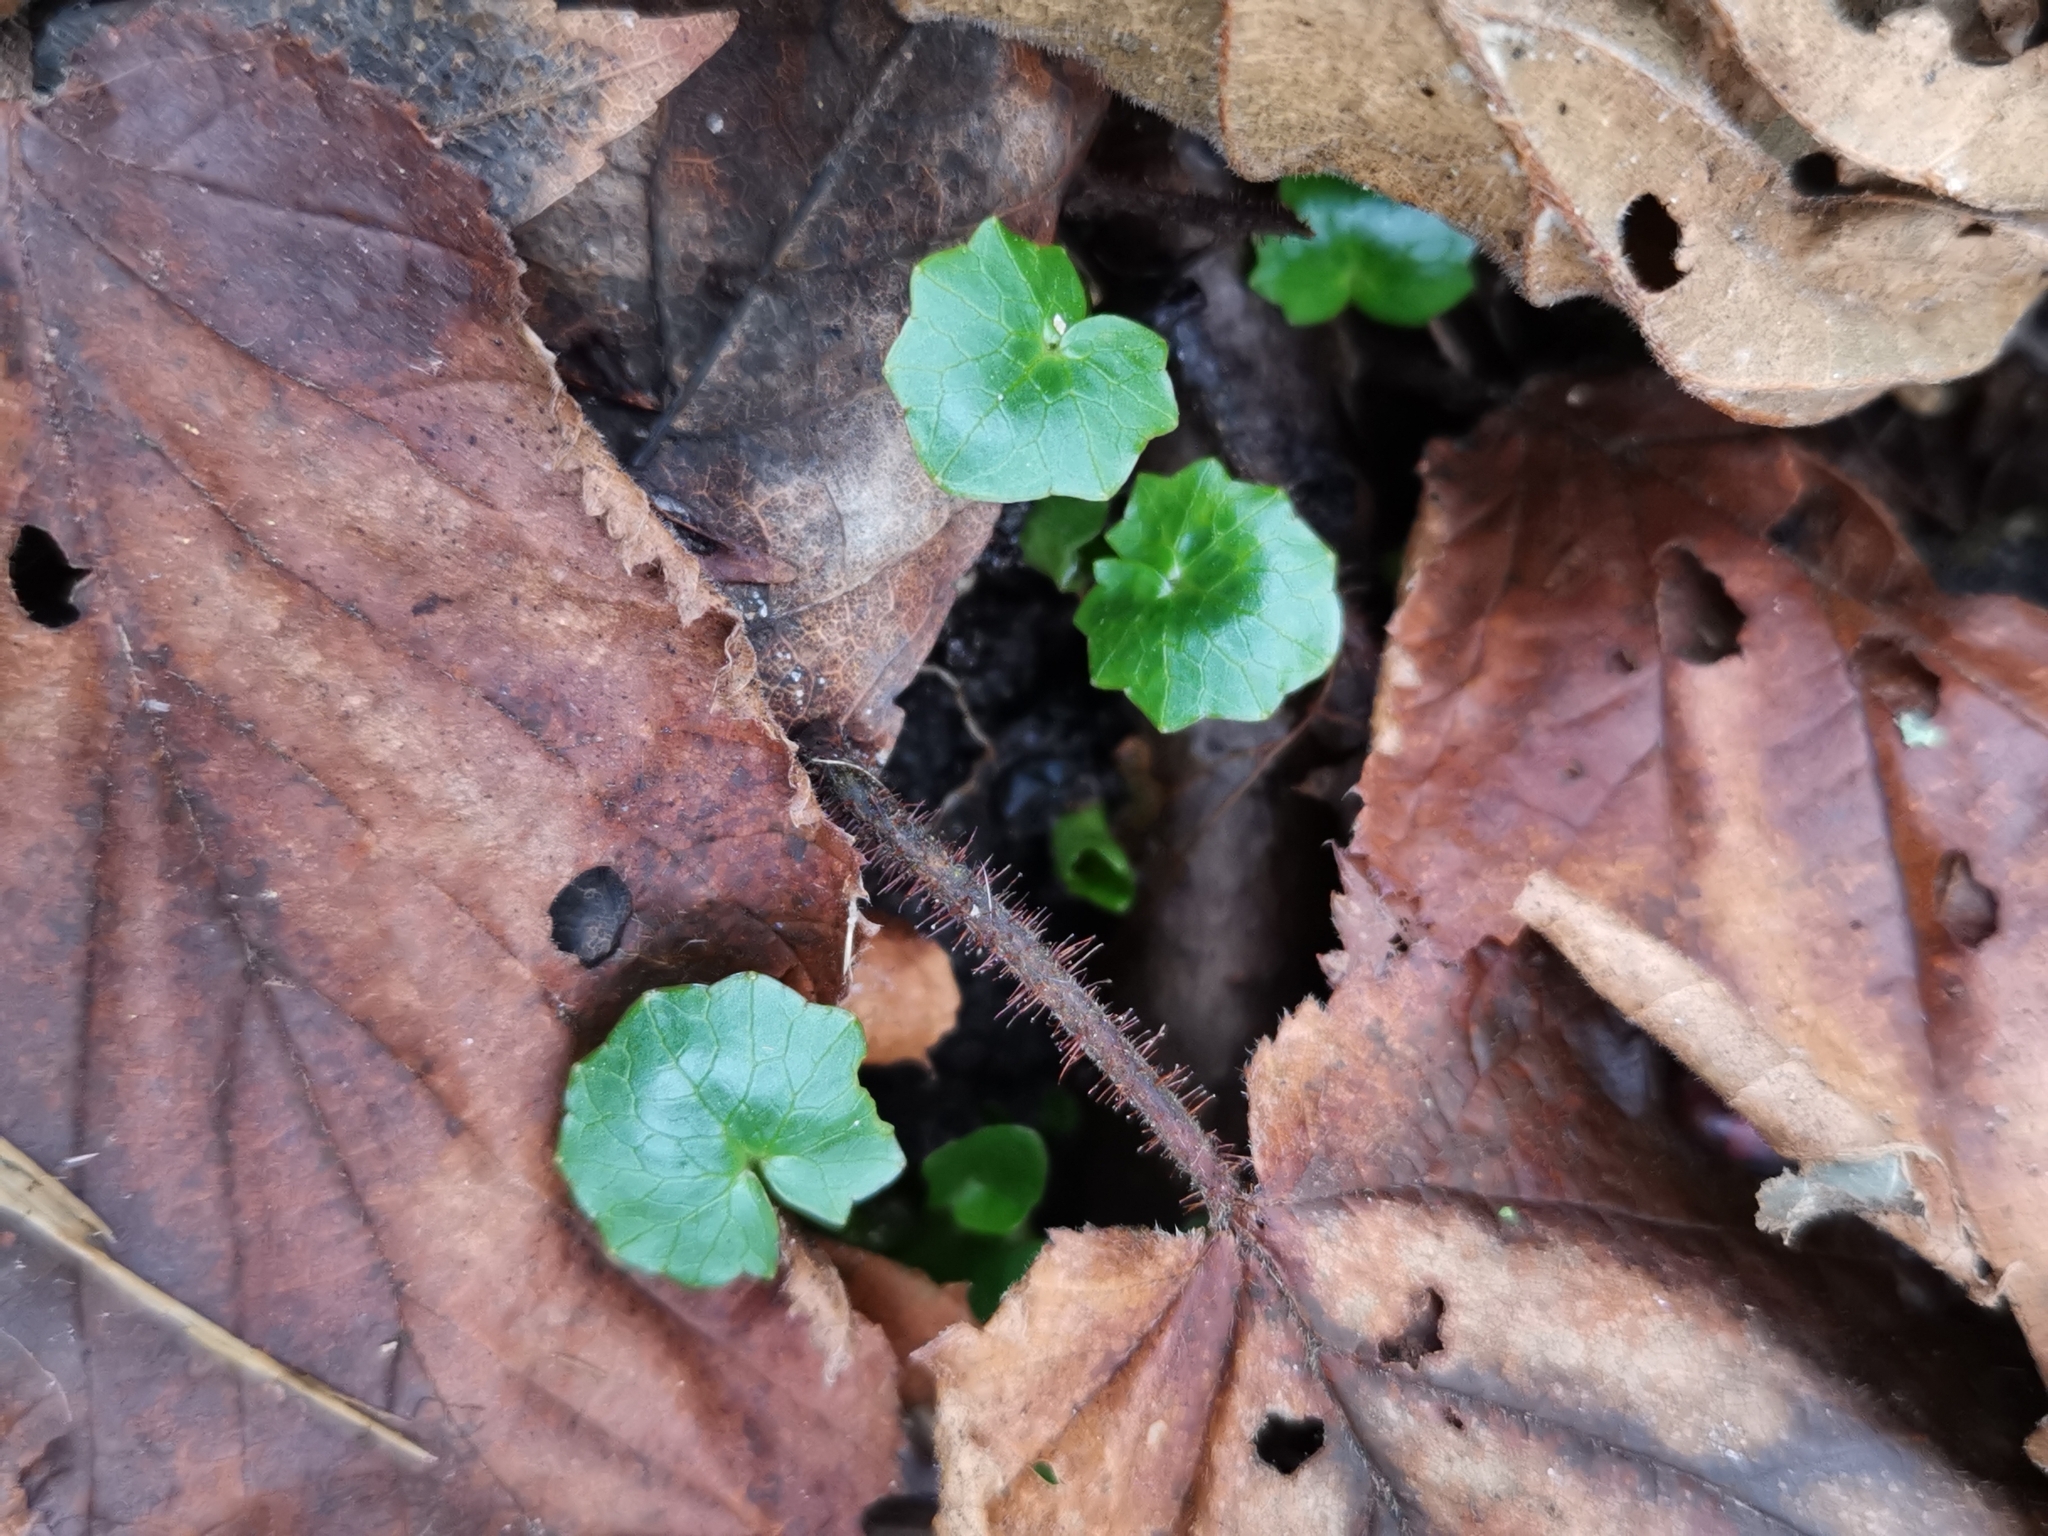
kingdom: Plantae
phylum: Tracheophyta
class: Magnoliopsida
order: Ranunculales
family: Ranunculaceae
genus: Ficaria
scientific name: Ficaria verna
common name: Lesser celandine
